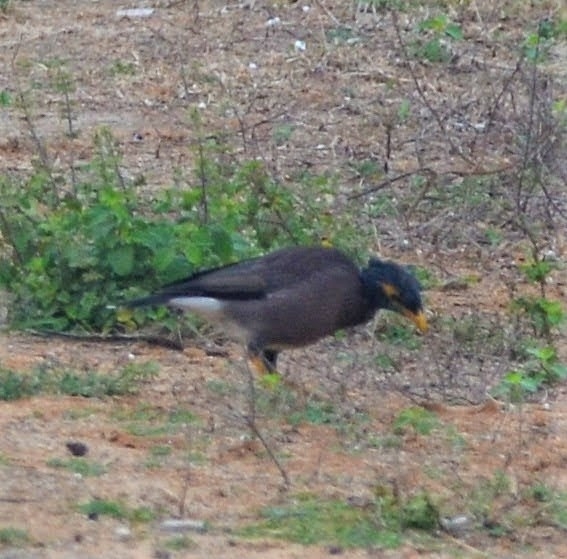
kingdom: Animalia
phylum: Chordata
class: Aves
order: Passeriformes
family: Sturnidae
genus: Acridotheres
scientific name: Acridotheres tristis
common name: Common myna
